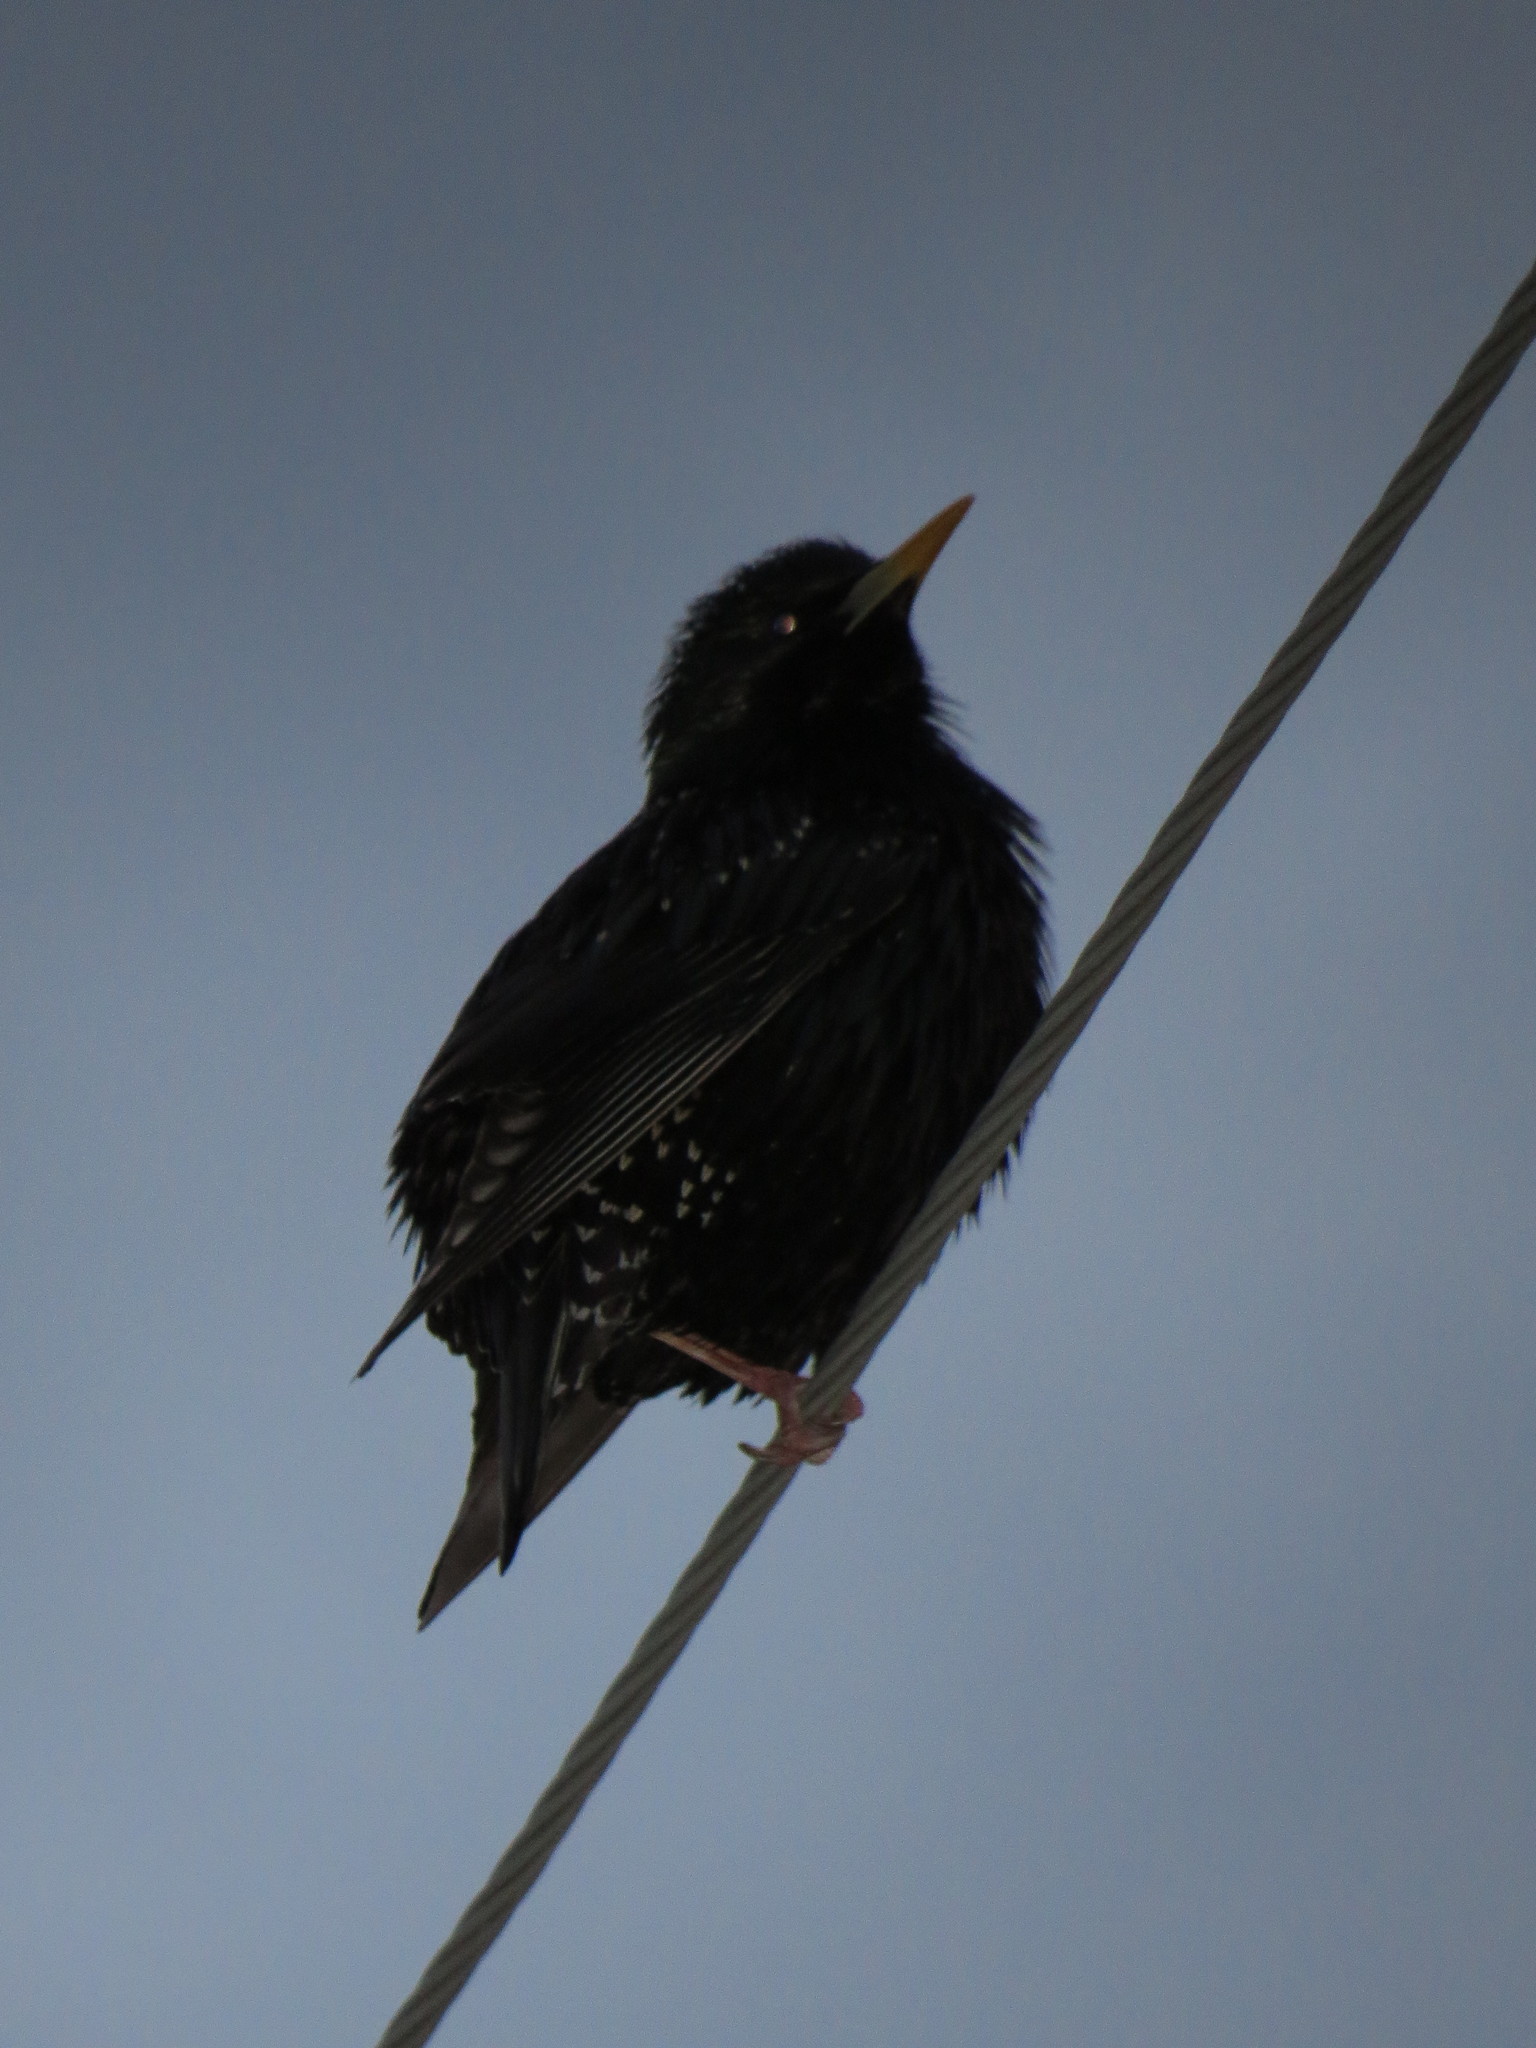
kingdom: Animalia
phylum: Chordata
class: Aves
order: Passeriformes
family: Sturnidae
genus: Sturnus
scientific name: Sturnus vulgaris
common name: Common starling
